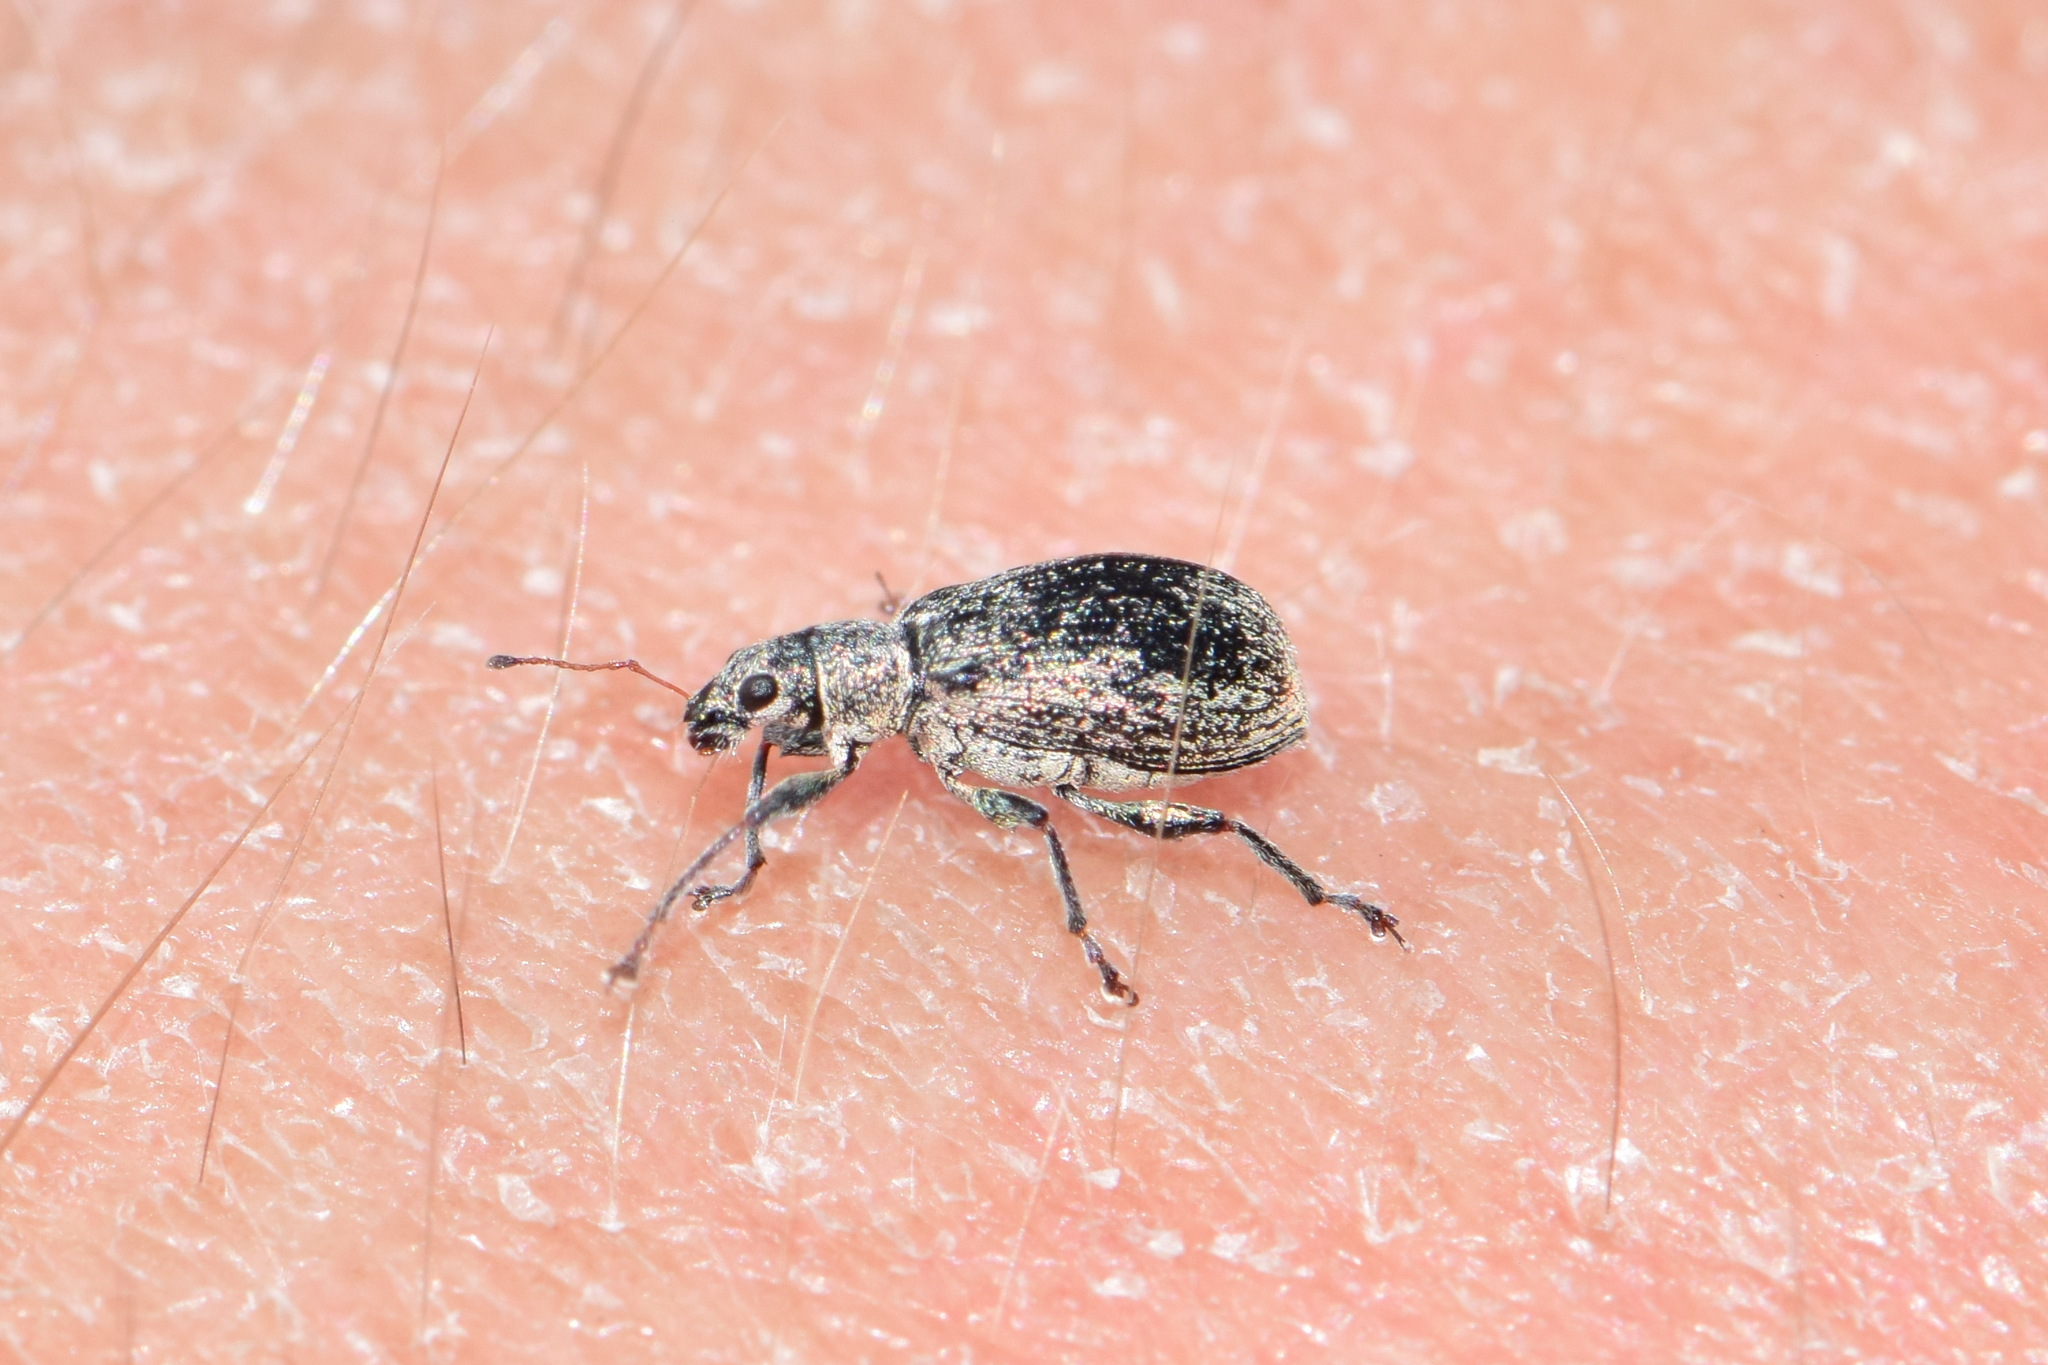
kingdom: Animalia
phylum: Arthropoda
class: Insecta
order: Coleoptera
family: Curculionidae
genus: Polydrusus
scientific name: Polydrusus cervinus
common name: Weevil
